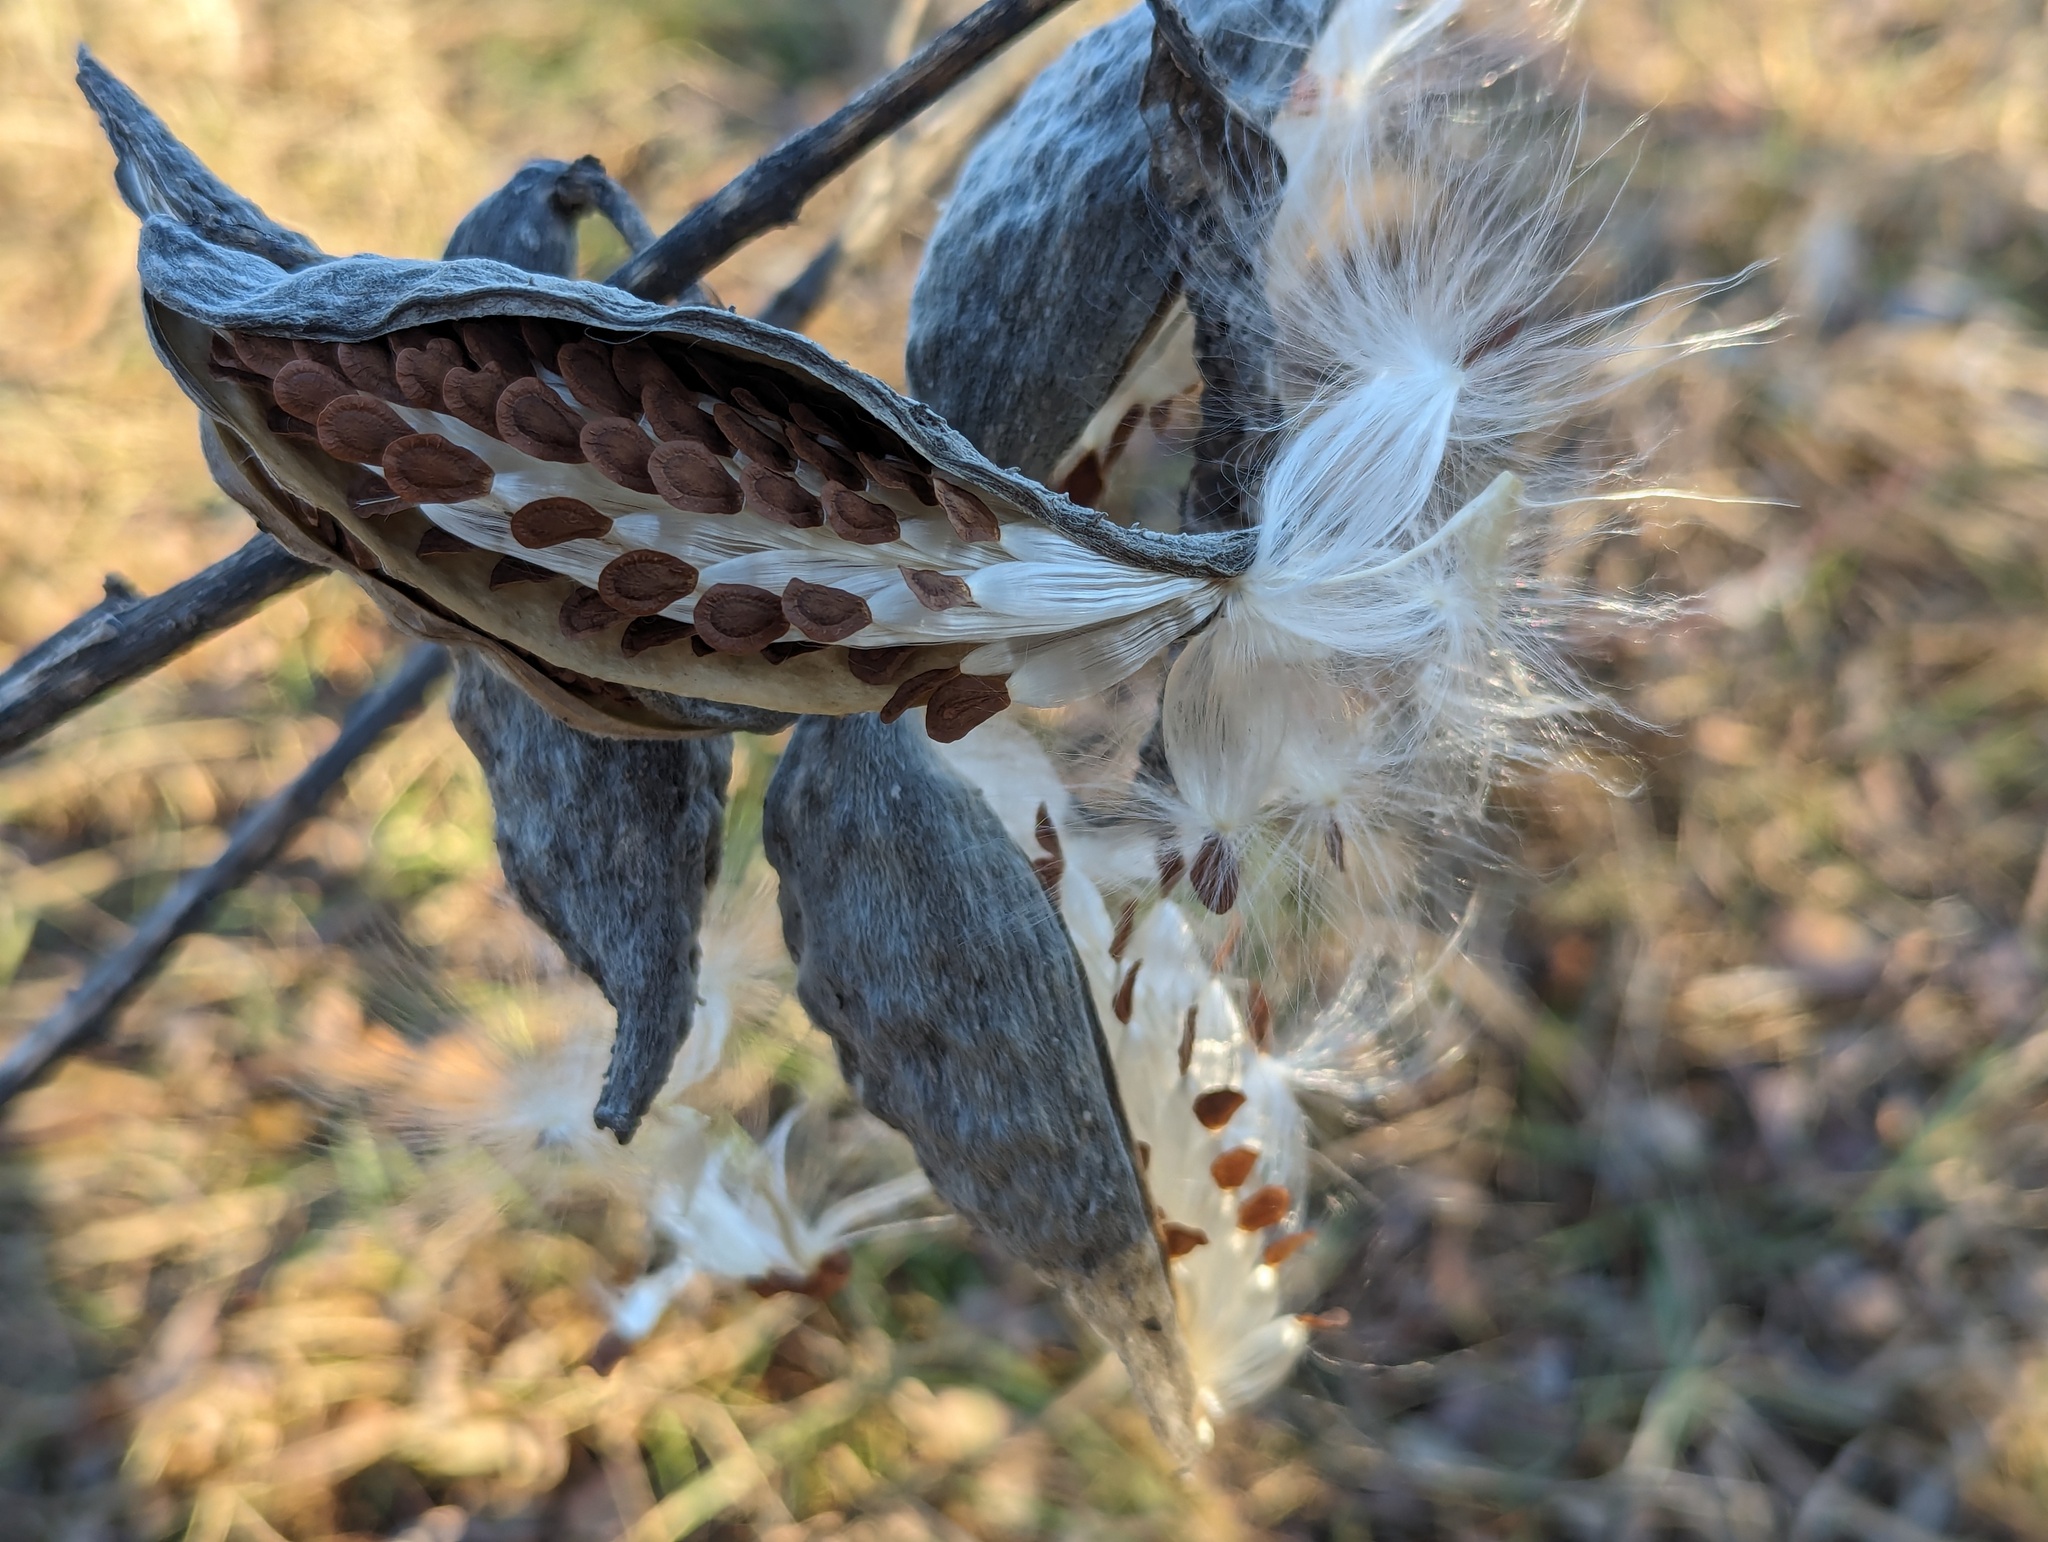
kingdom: Plantae
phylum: Tracheophyta
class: Magnoliopsida
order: Gentianales
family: Apocynaceae
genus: Asclepias
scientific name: Asclepias syriaca
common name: Common milkweed
